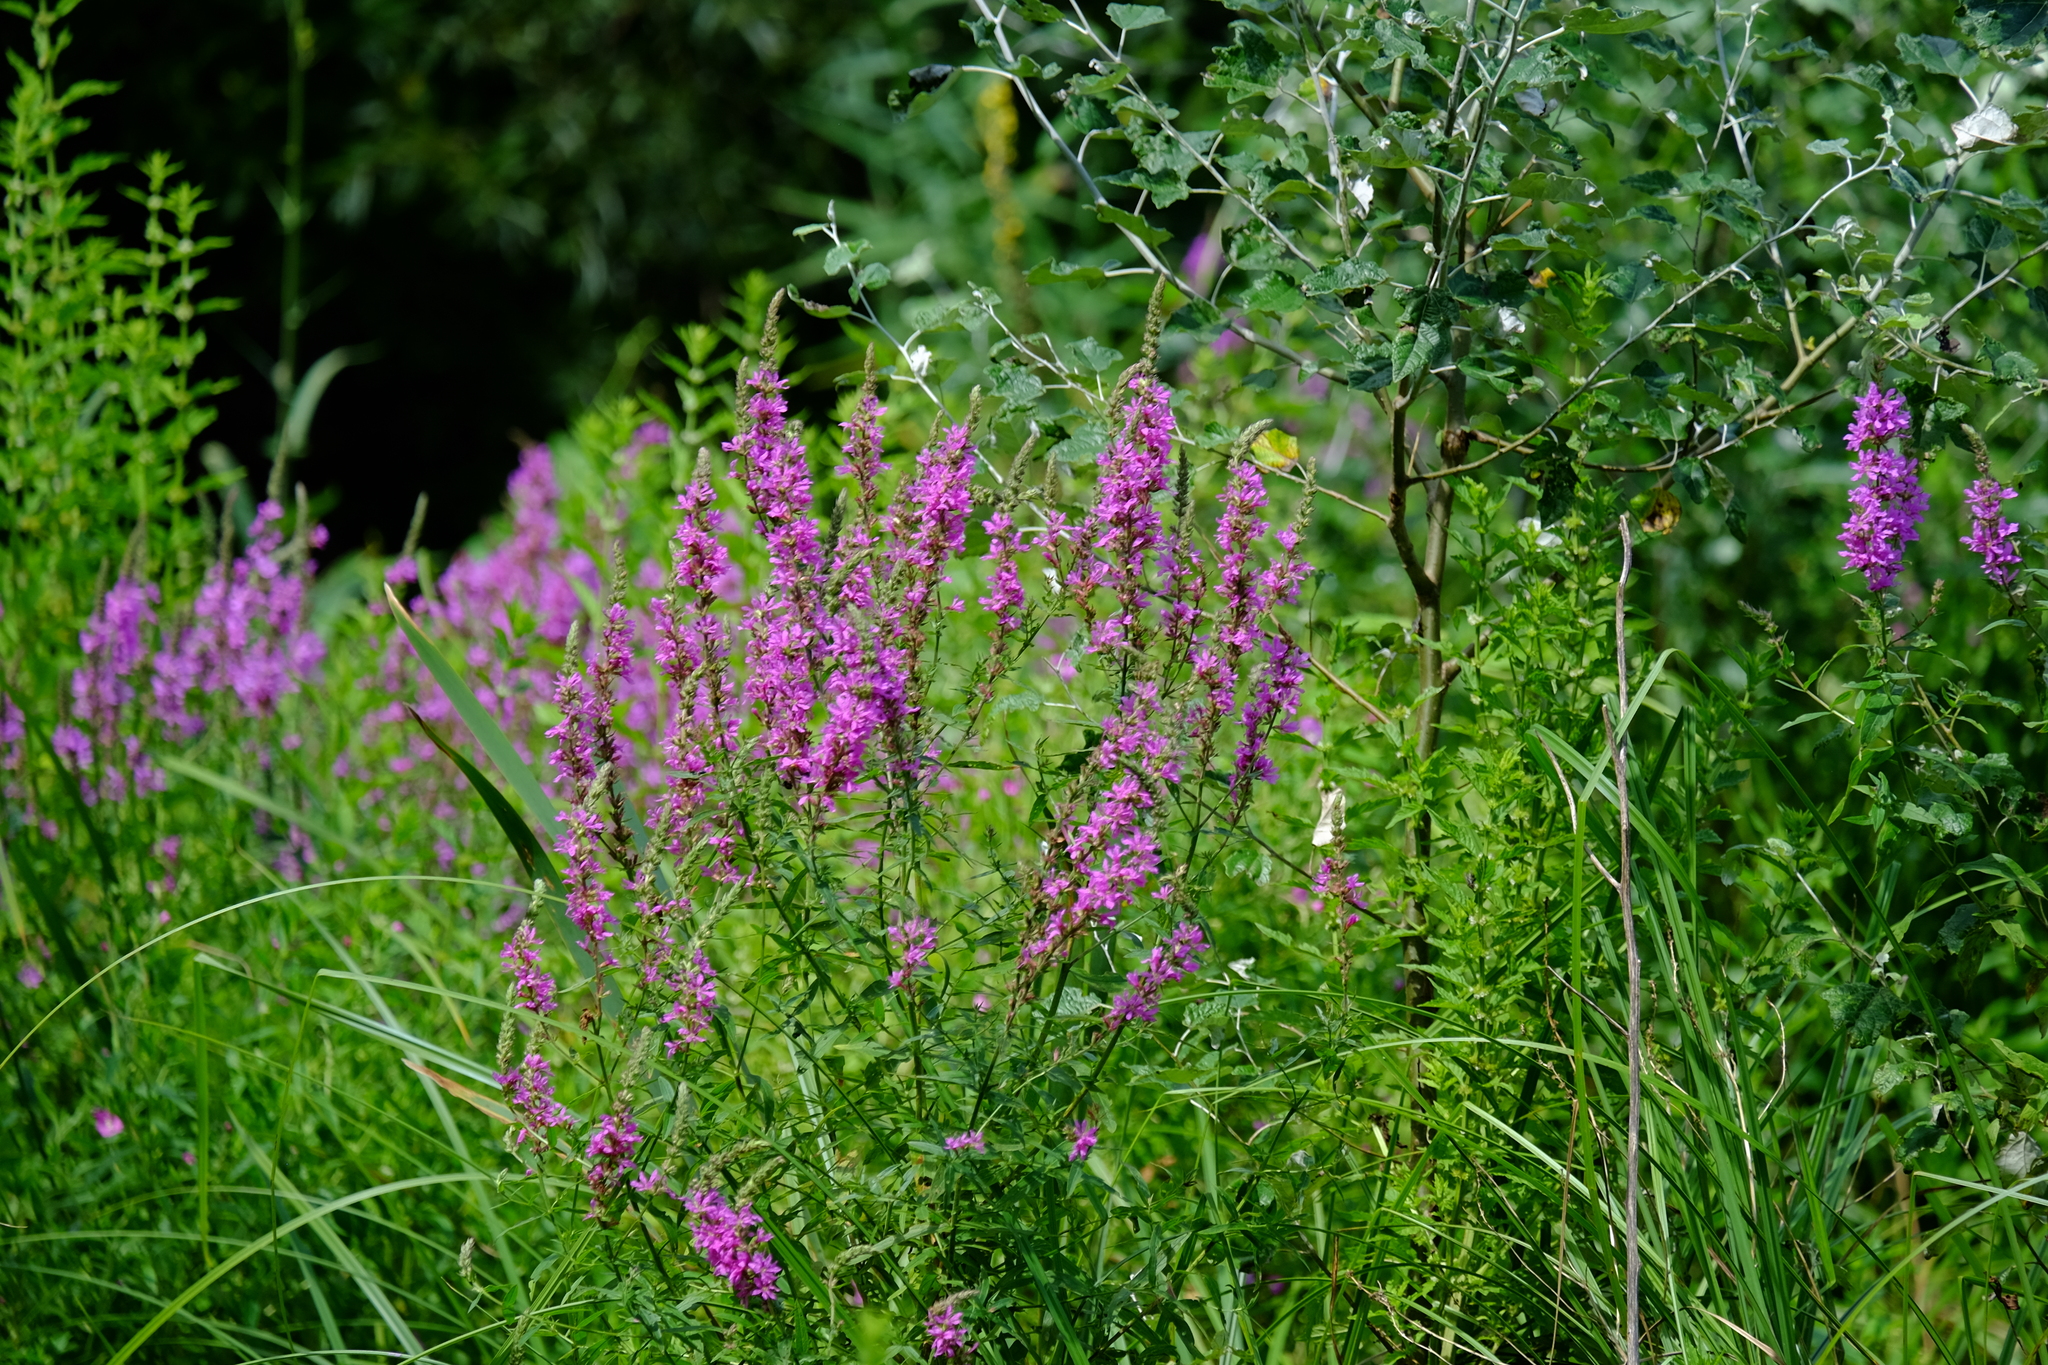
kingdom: Plantae
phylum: Tracheophyta
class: Magnoliopsida
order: Myrtales
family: Lythraceae
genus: Lythrum
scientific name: Lythrum salicaria
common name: Purple loosestrife
